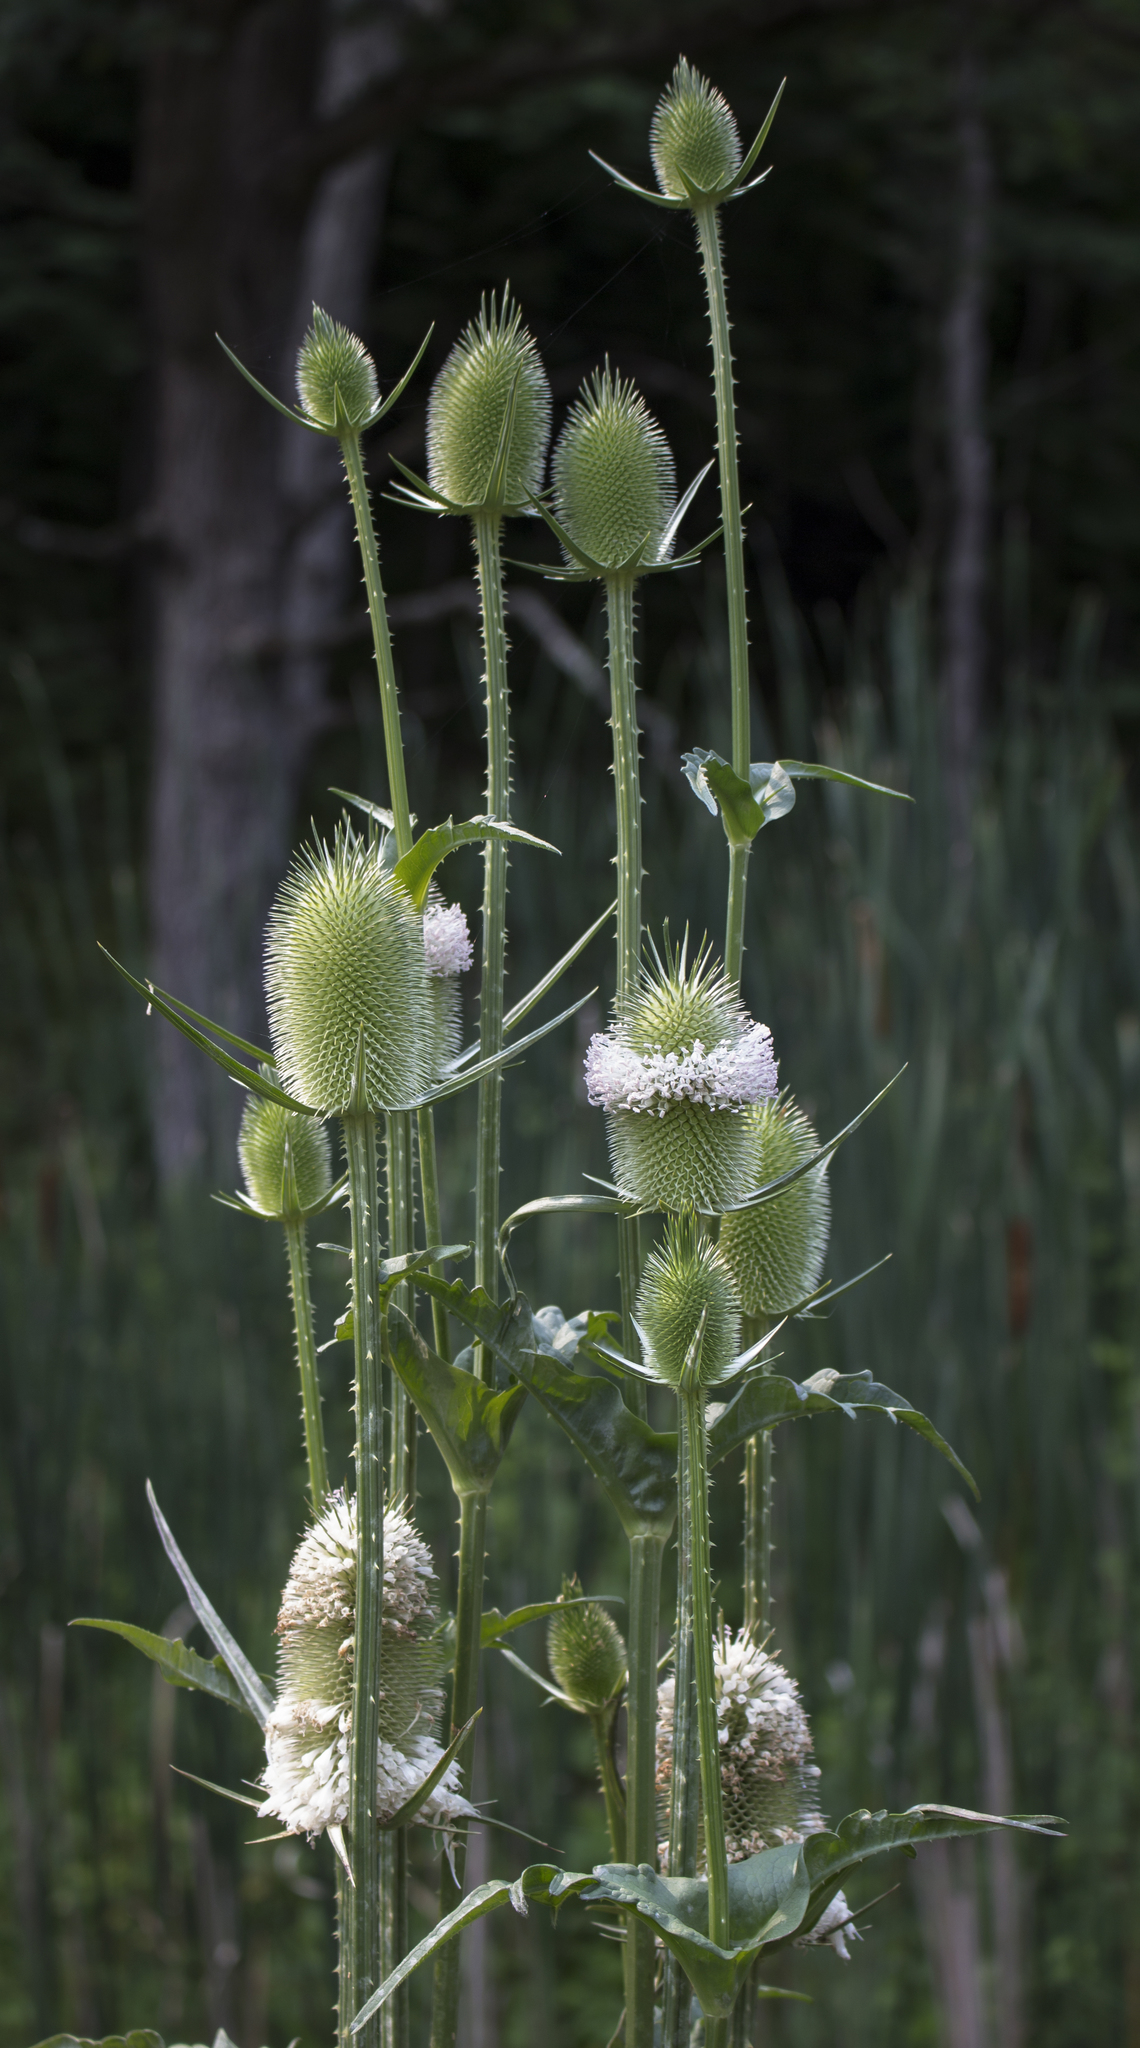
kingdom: Plantae
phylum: Tracheophyta
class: Magnoliopsida
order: Dipsacales
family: Caprifoliaceae
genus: Dipsacus
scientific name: Dipsacus laciniatus
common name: Cut-leaved teasel
